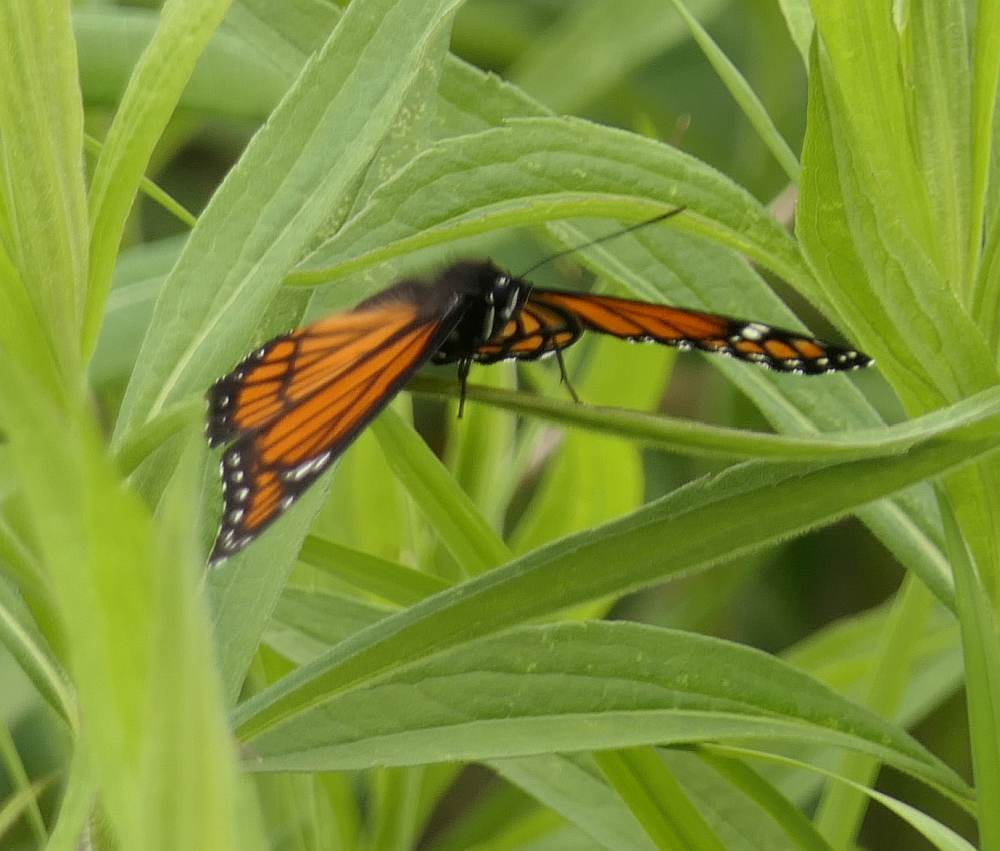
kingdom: Animalia
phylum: Arthropoda
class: Insecta
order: Lepidoptera
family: Nymphalidae
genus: Limenitis
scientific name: Limenitis archippus
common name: Viceroy
